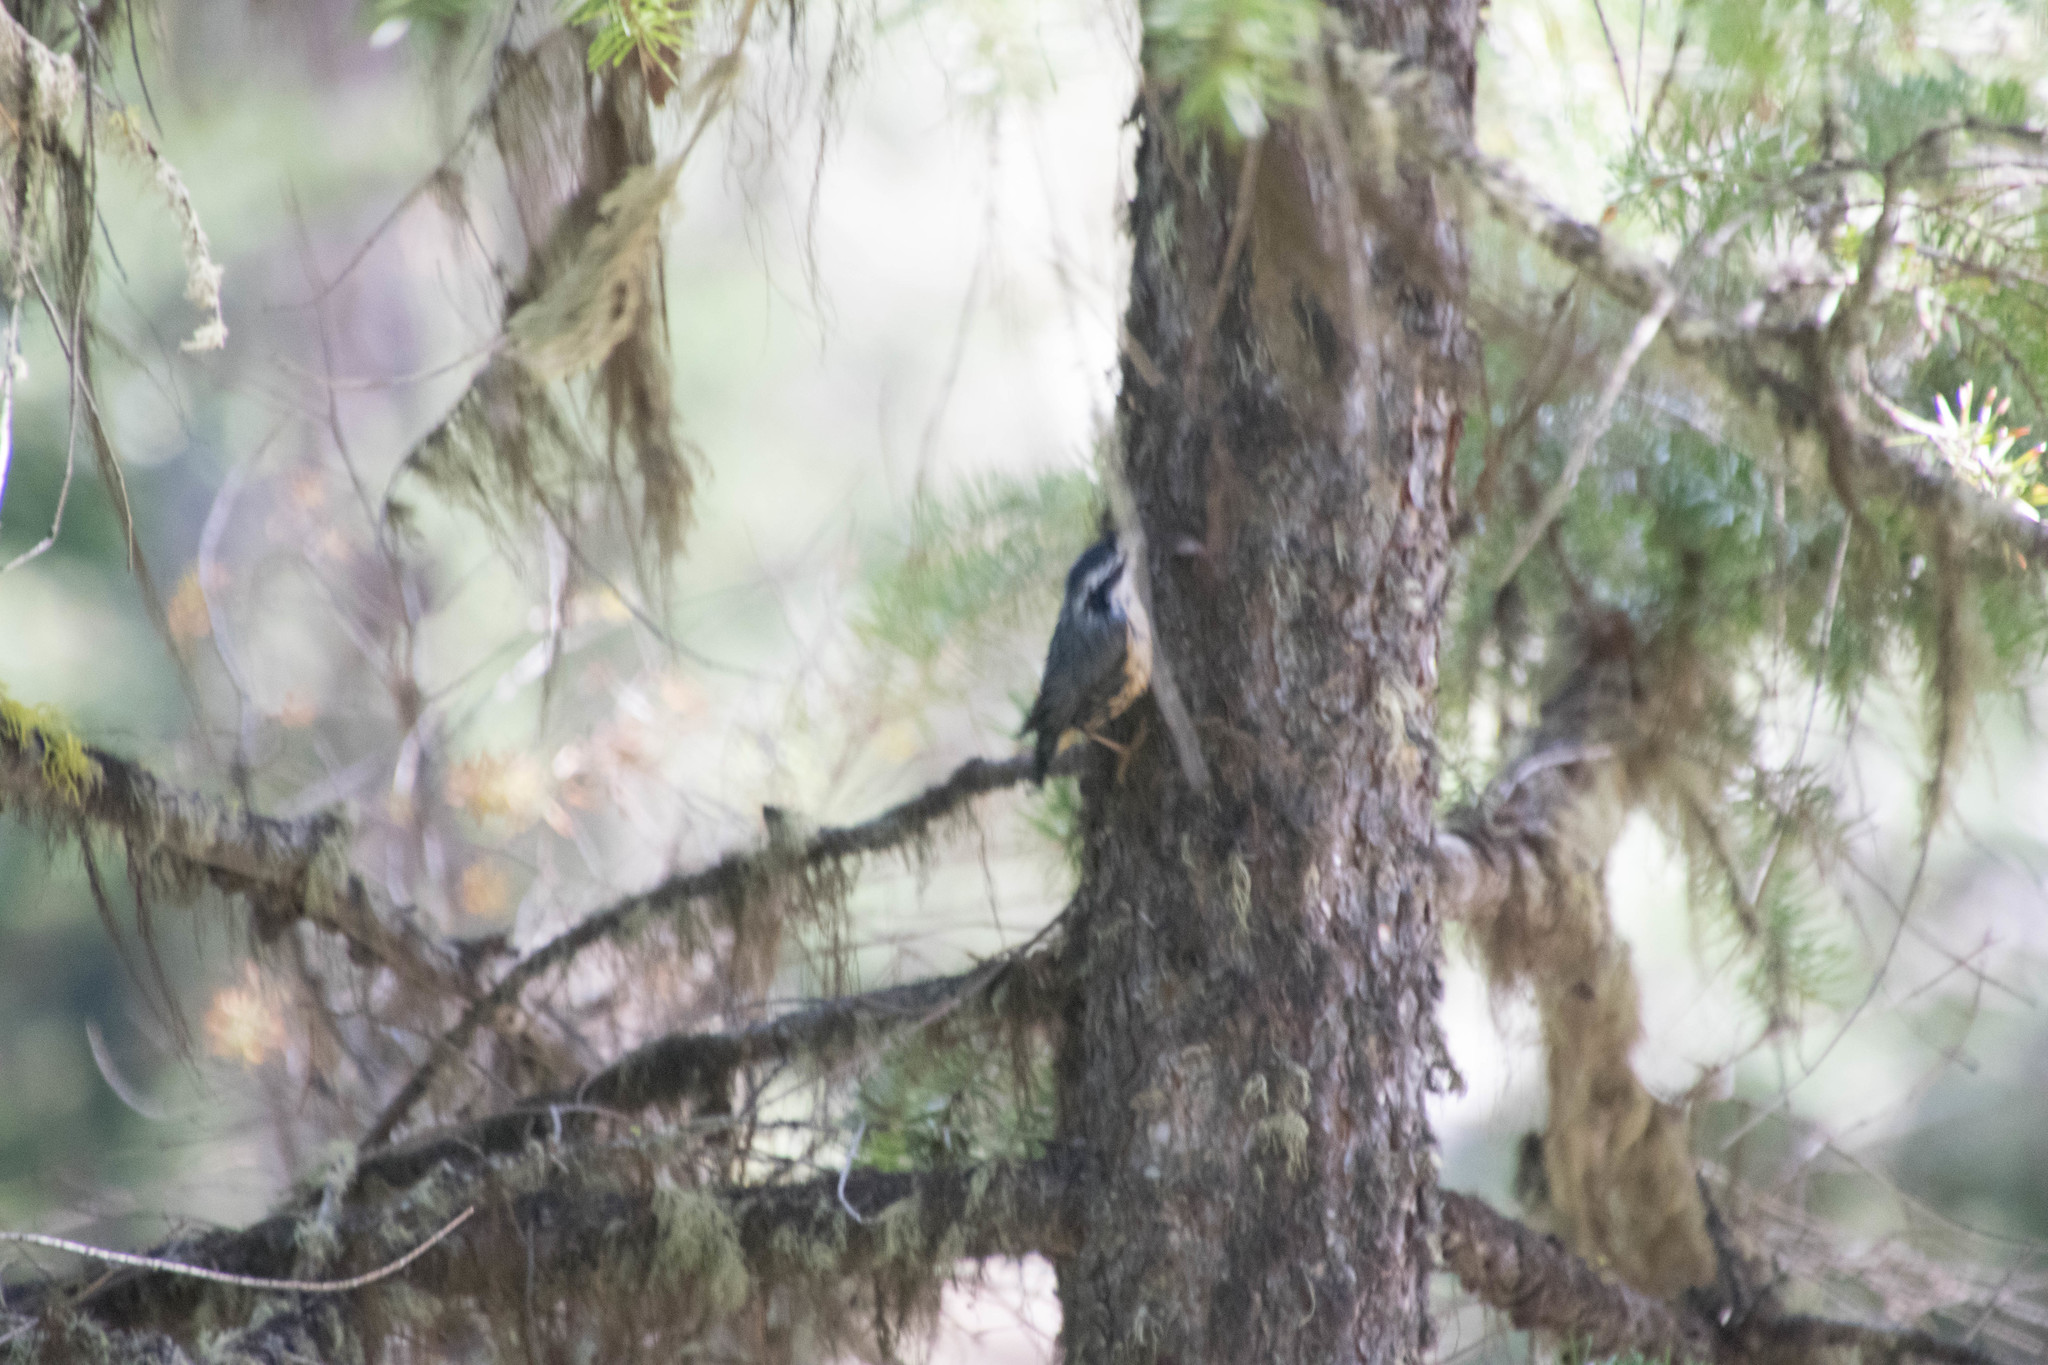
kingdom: Animalia
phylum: Chordata
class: Aves
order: Passeriformes
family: Sittidae
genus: Sitta
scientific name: Sitta canadensis
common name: Red-breasted nuthatch
